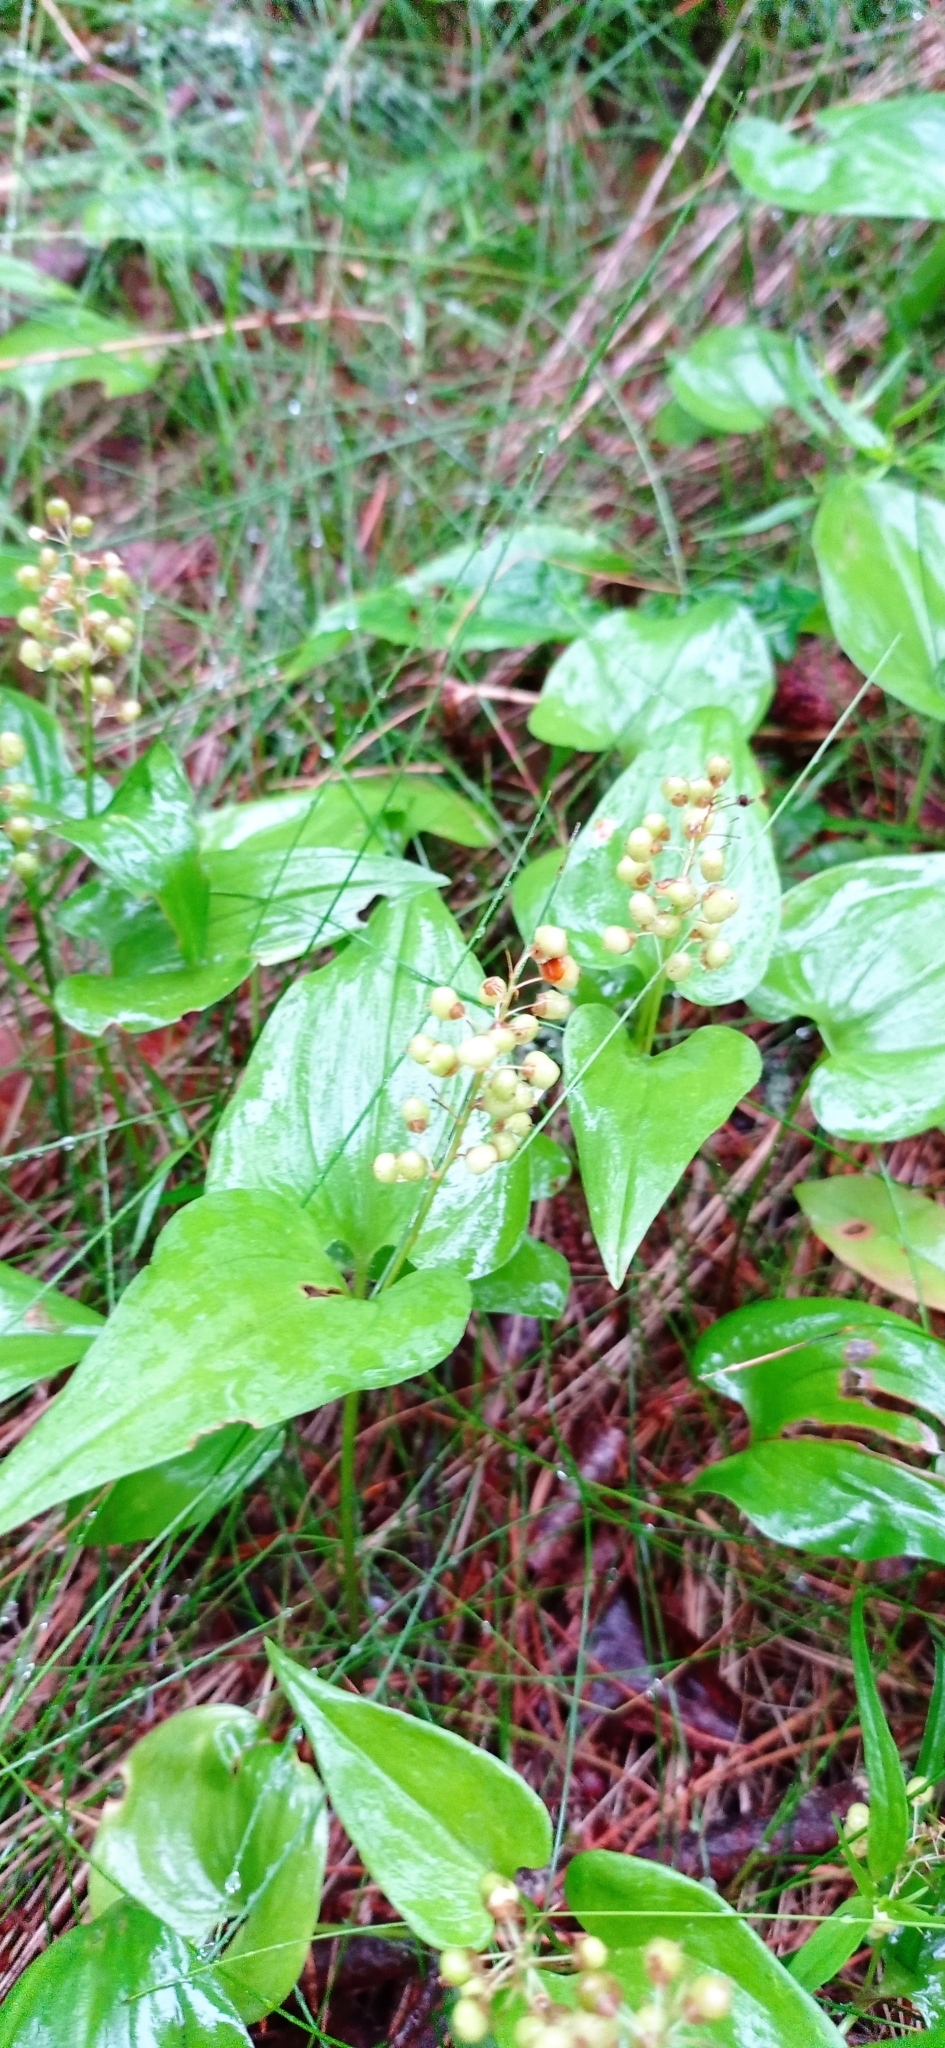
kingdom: Plantae
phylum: Tracheophyta
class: Liliopsida
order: Asparagales
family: Asparagaceae
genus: Maianthemum
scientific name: Maianthemum bifolium
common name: May lily
